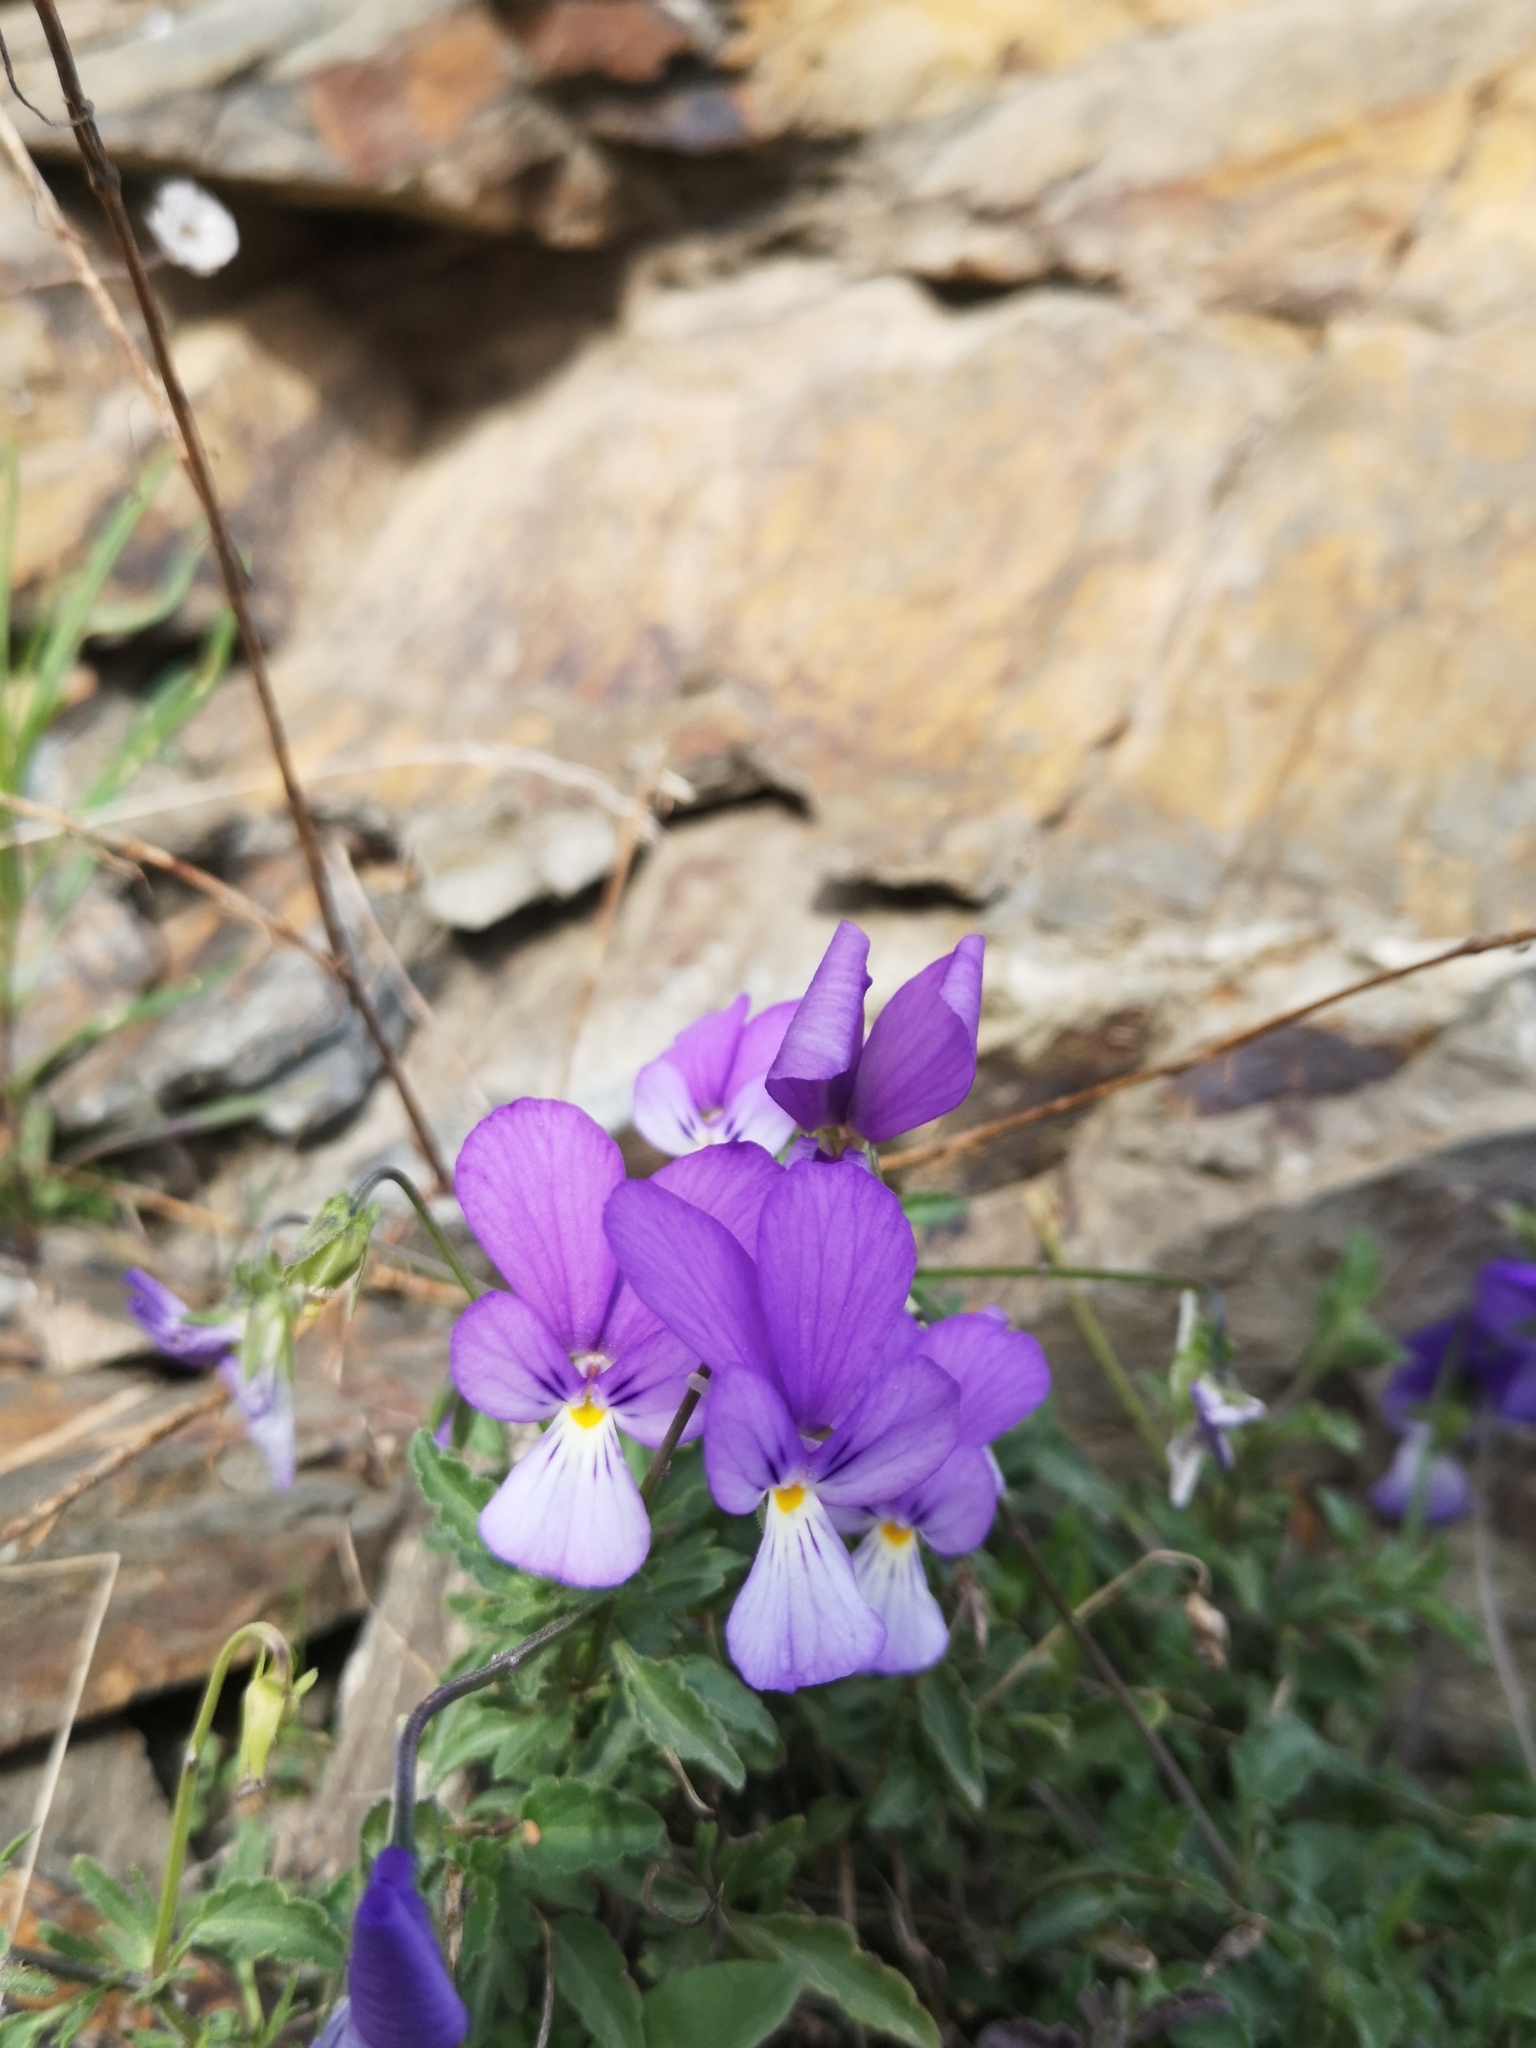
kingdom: Plantae
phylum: Tracheophyta
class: Magnoliopsida
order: Malpighiales
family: Violaceae
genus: Viola
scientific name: Viola tricolor
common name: Pansy
